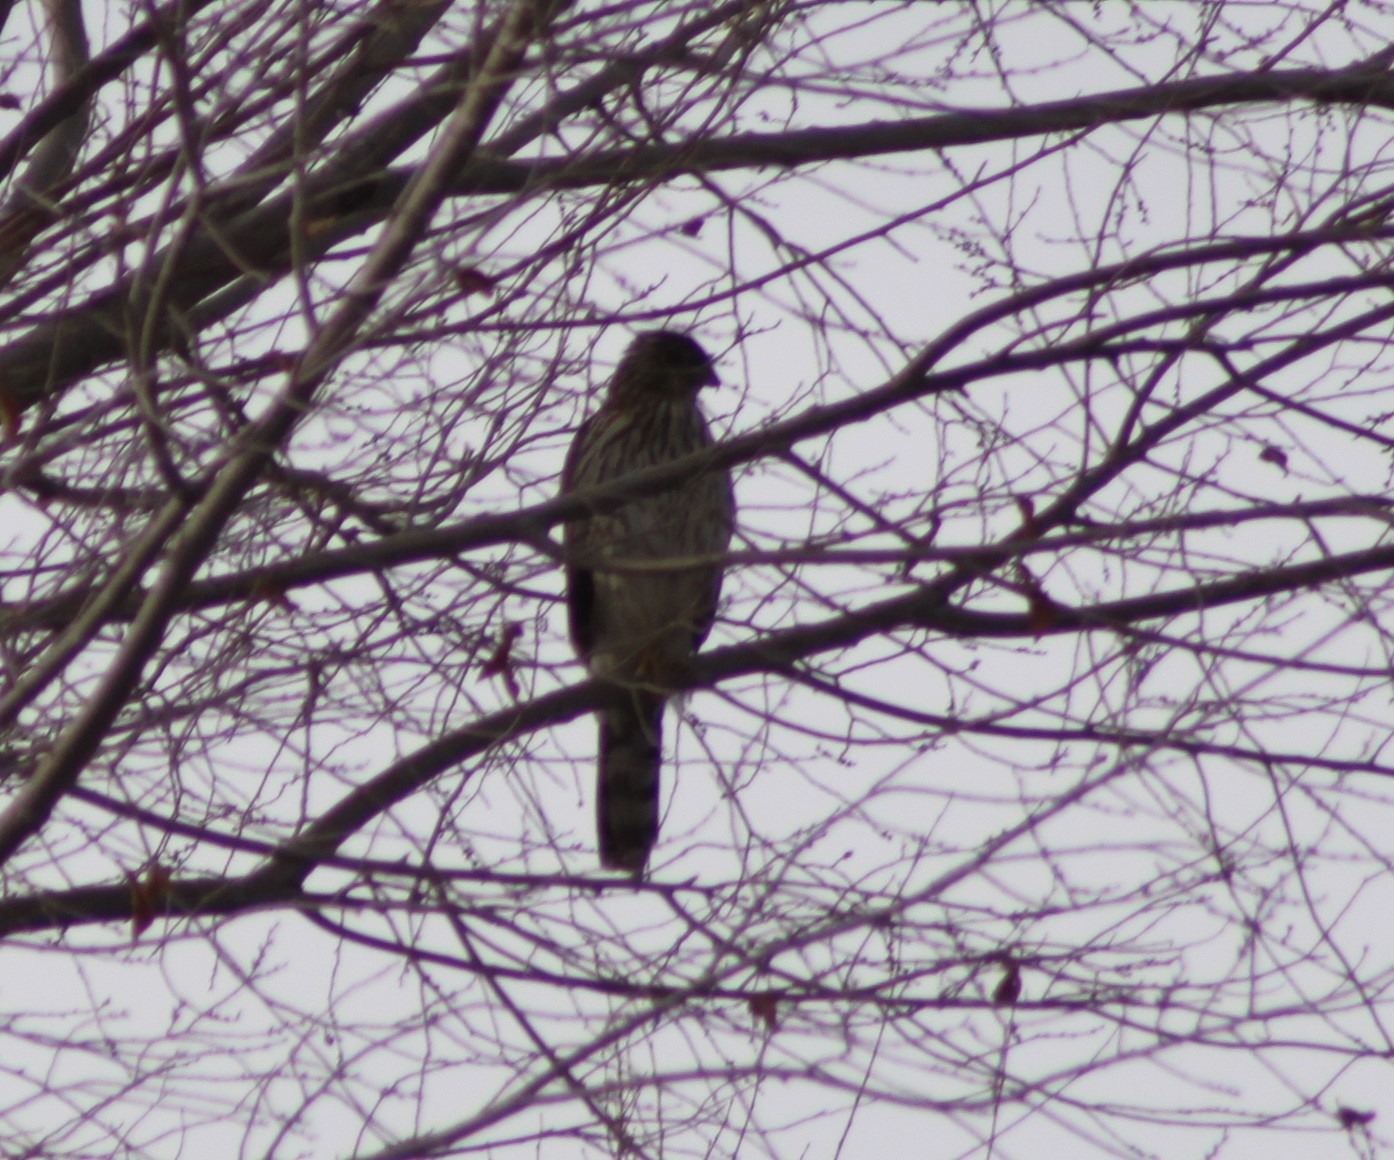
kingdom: Animalia
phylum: Chordata
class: Aves
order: Accipitriformes
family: Accipitridae
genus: Accipiter
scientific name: Accipiter cooperii
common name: Cooper's hawk
